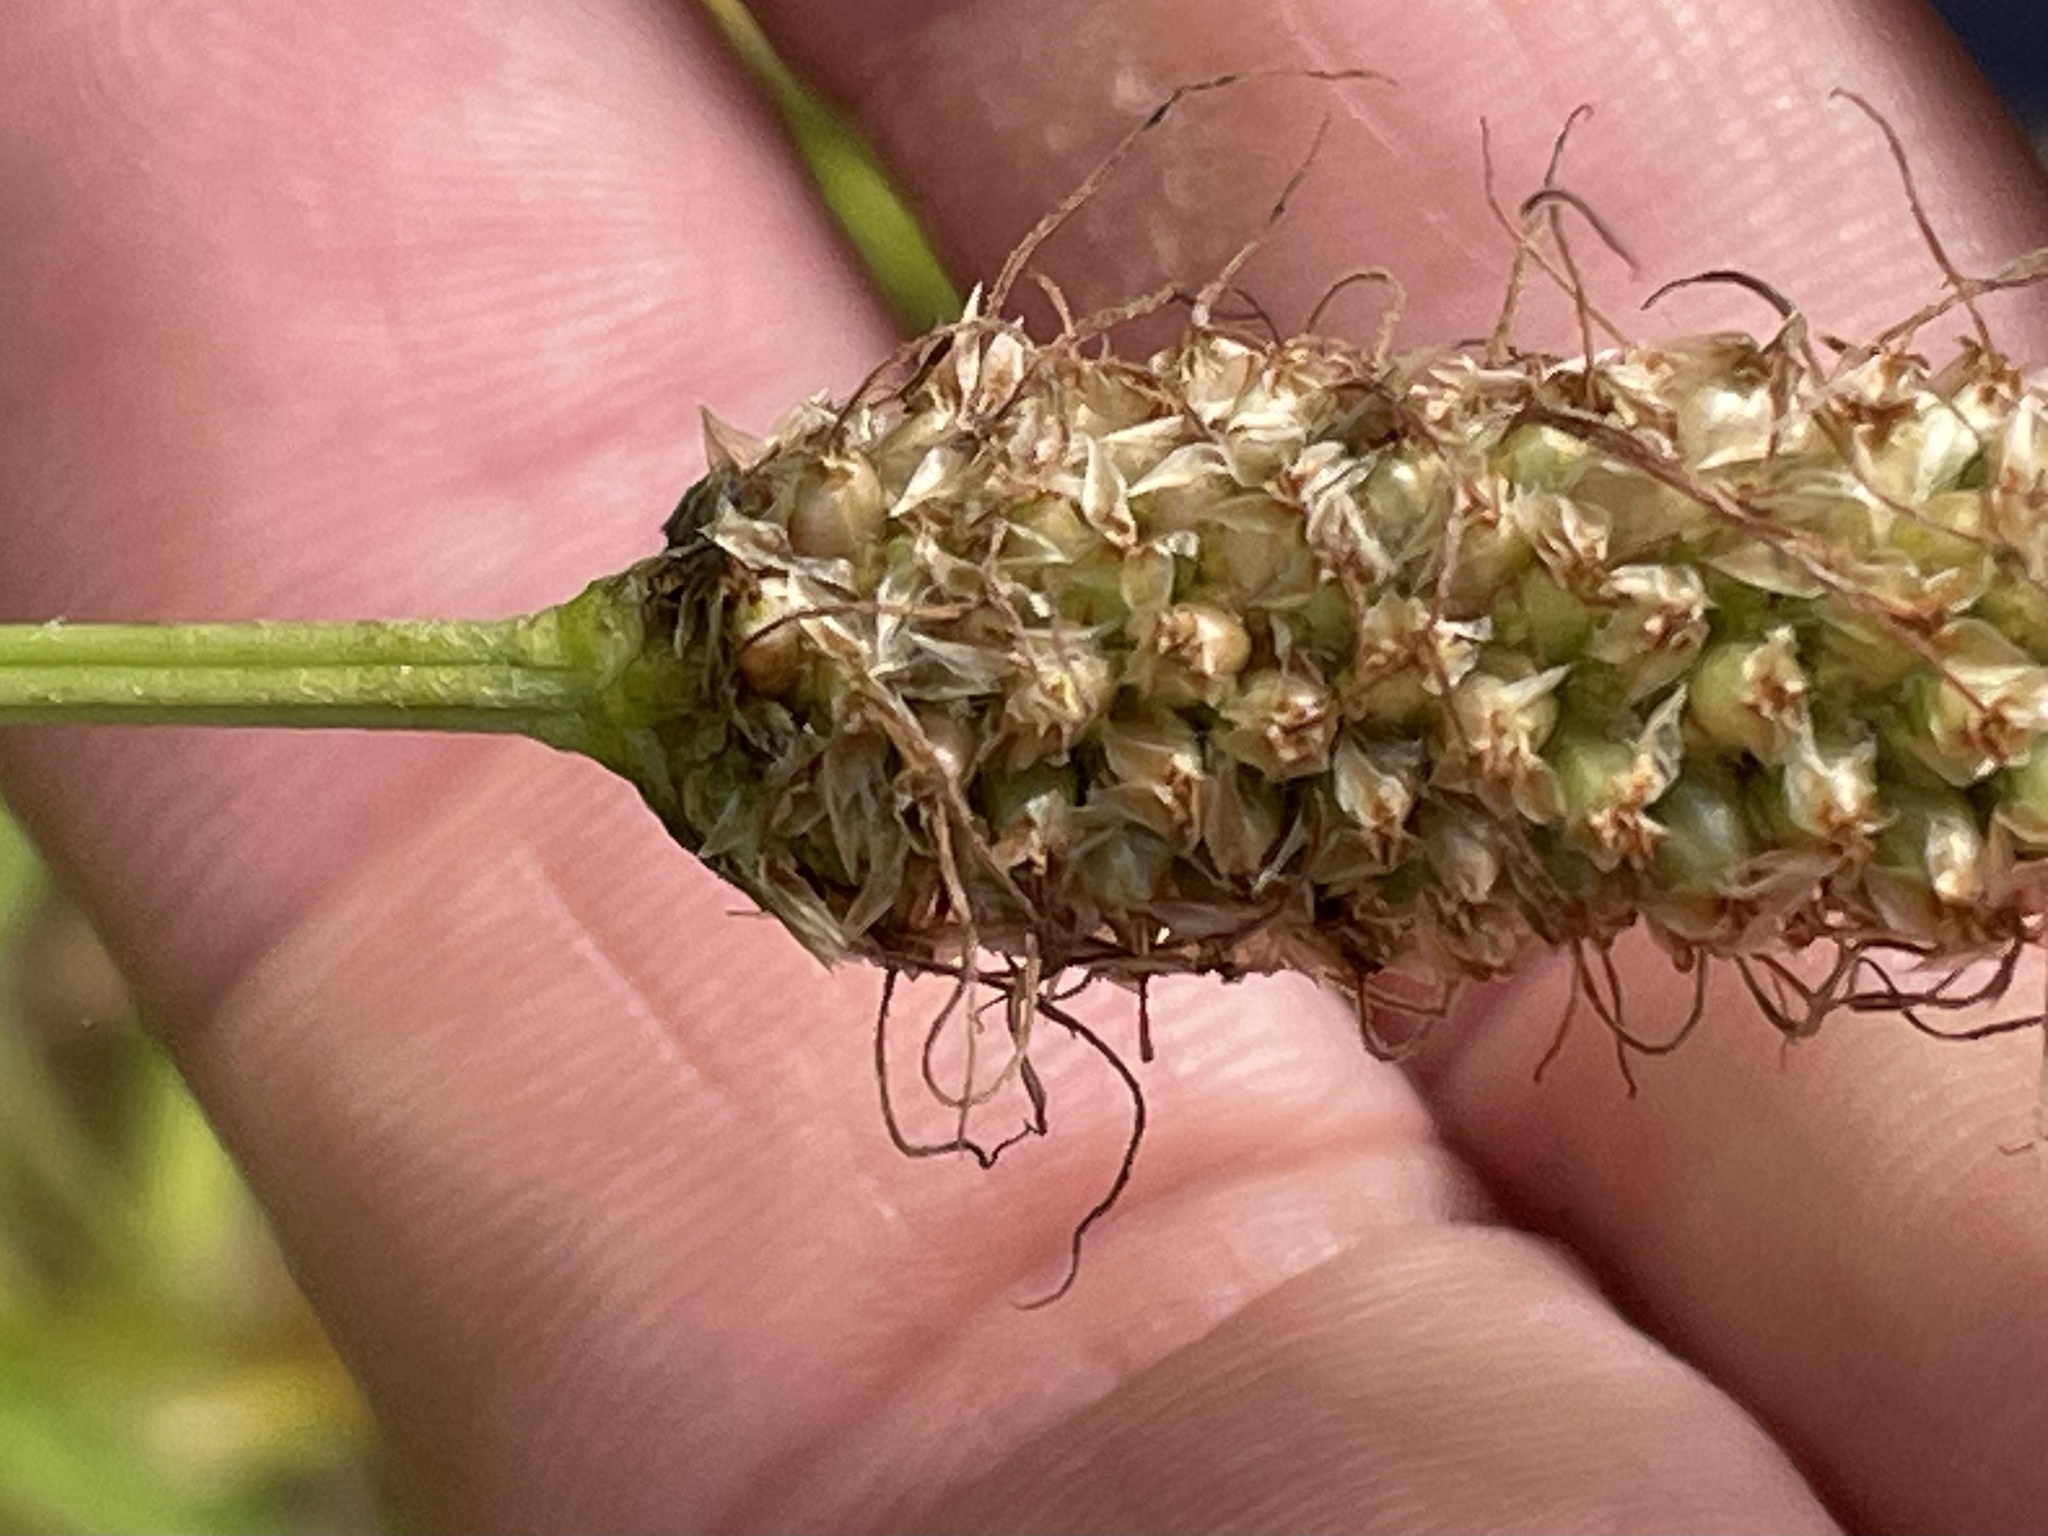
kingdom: Plantae
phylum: Tracheophyta
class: Magnoliopsida
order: Lamiales
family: Plantaginaceae
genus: Plantago
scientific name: Plantago lanceolata
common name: Ribwort plantain
